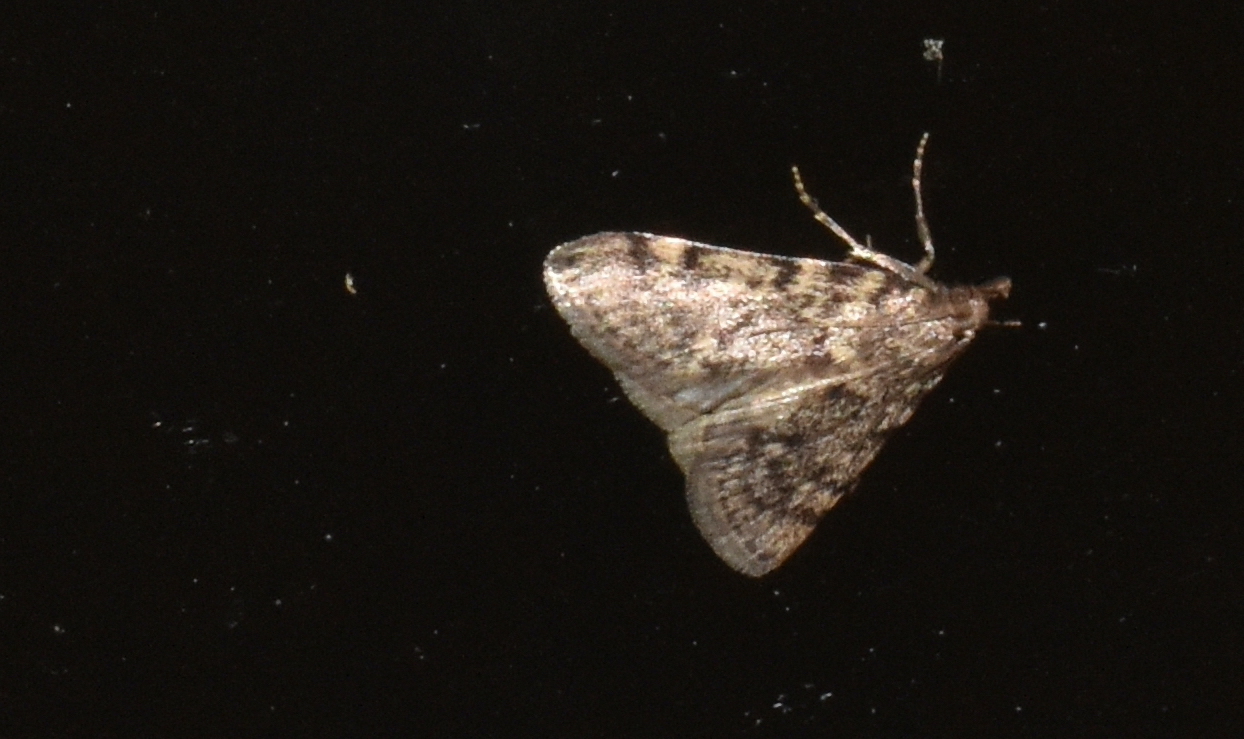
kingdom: Animalia
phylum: Arthropoda
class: Insecta
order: Lepidoptera
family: Pyralidae
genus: Aglossa
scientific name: Aglossa pinguinalis
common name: Large tabby
